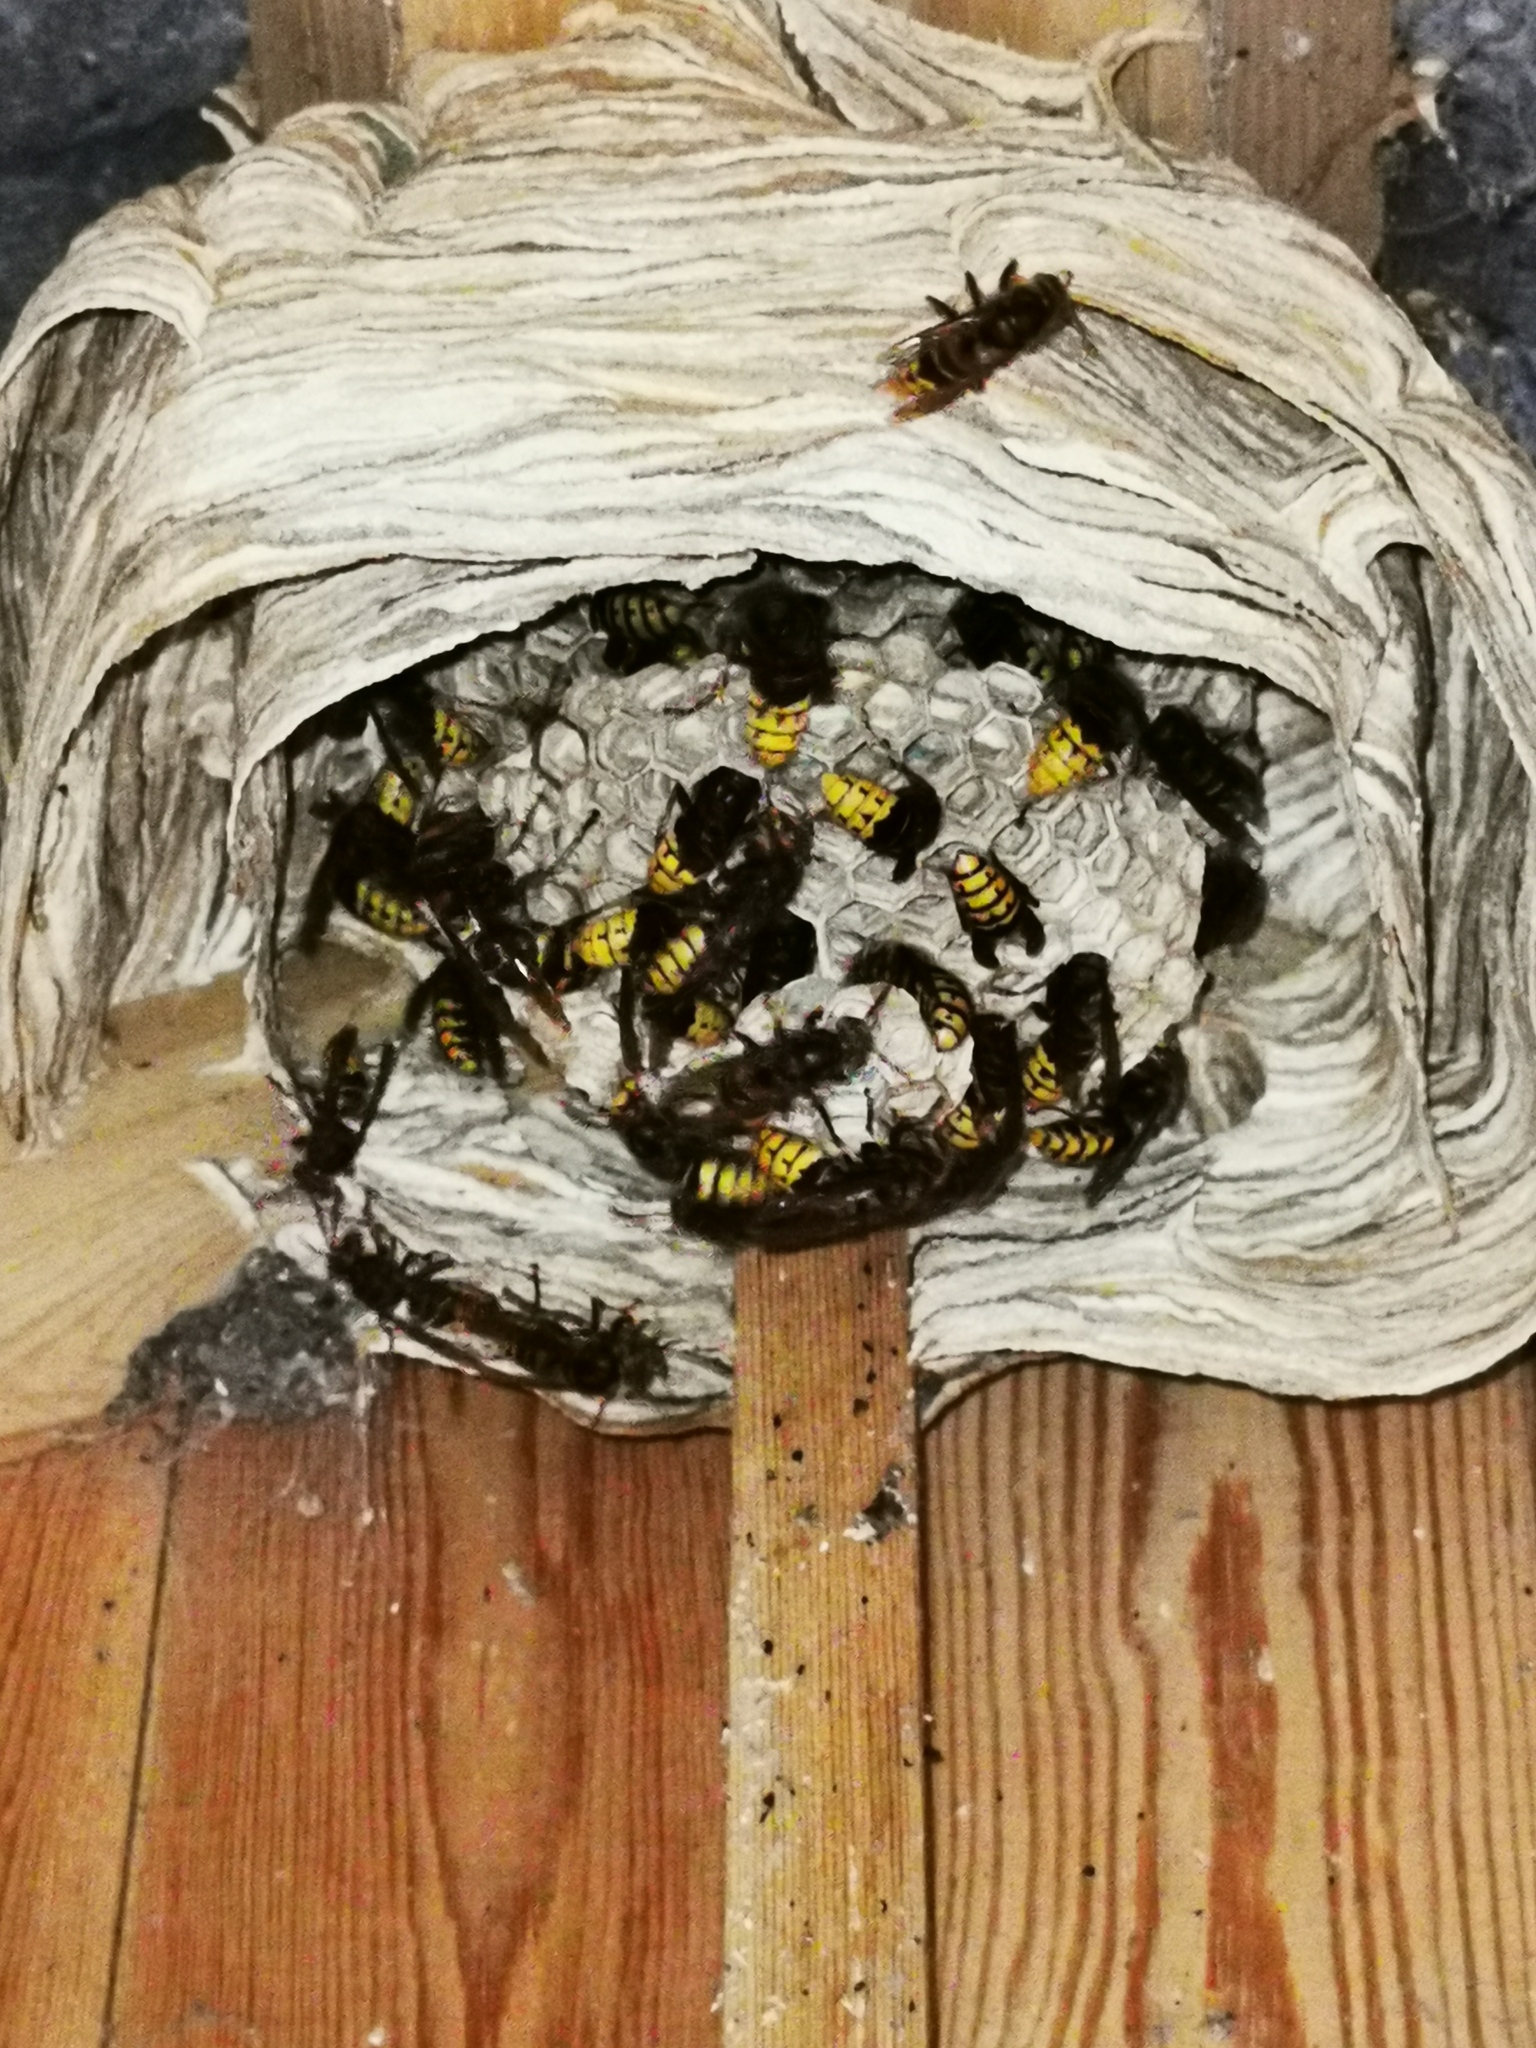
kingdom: Animalia
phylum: Arthropoda
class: Insecta
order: Hymenoptera
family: Vespidae
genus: Vespa
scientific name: Vespa crabro
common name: Hornet
